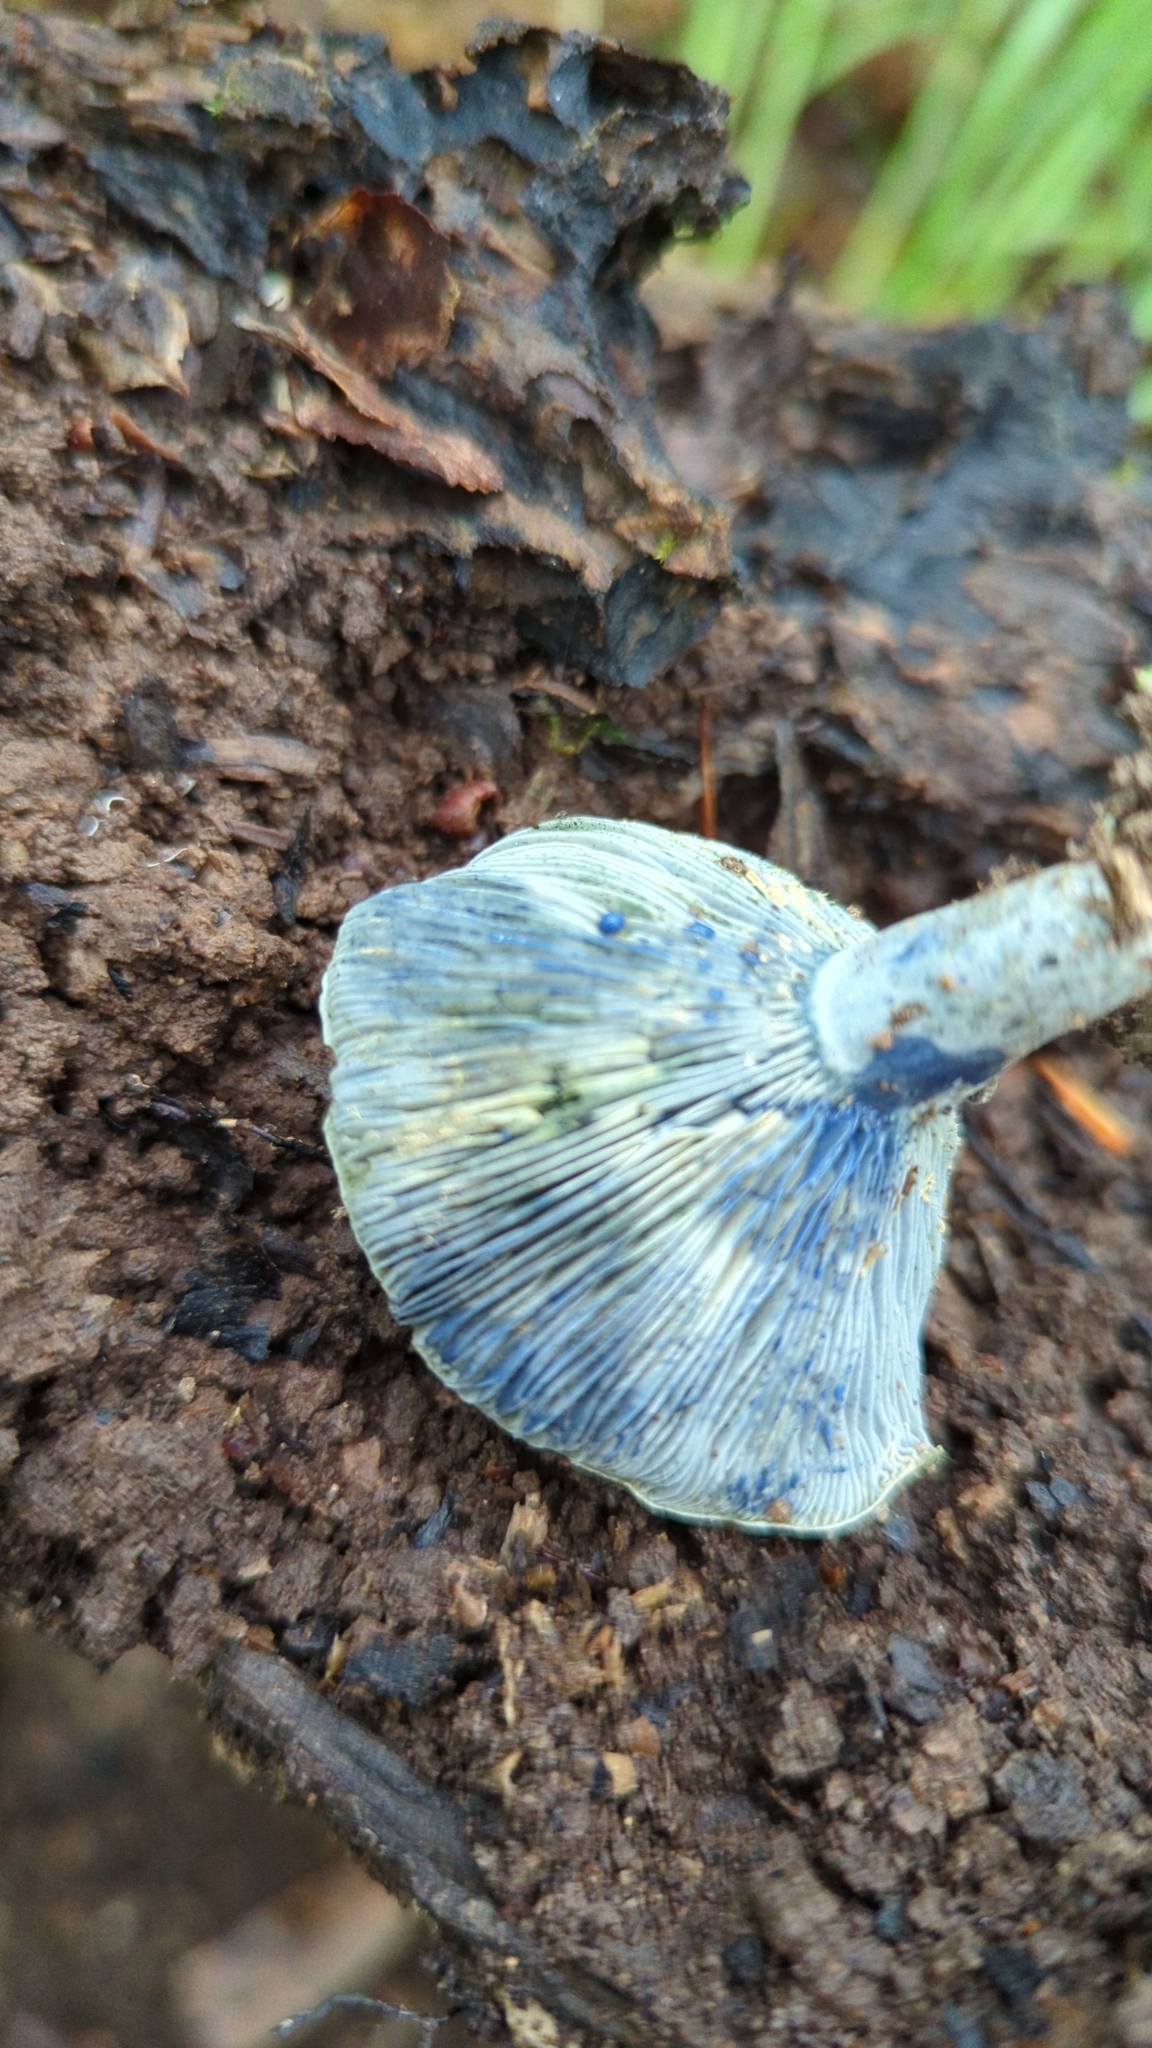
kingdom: Fungi
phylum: Basidiomycota
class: Agaricomycetes
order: Russulales
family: Russulaceae
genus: Lactarius
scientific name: Lactarius indigo
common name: Indigo milk cap
